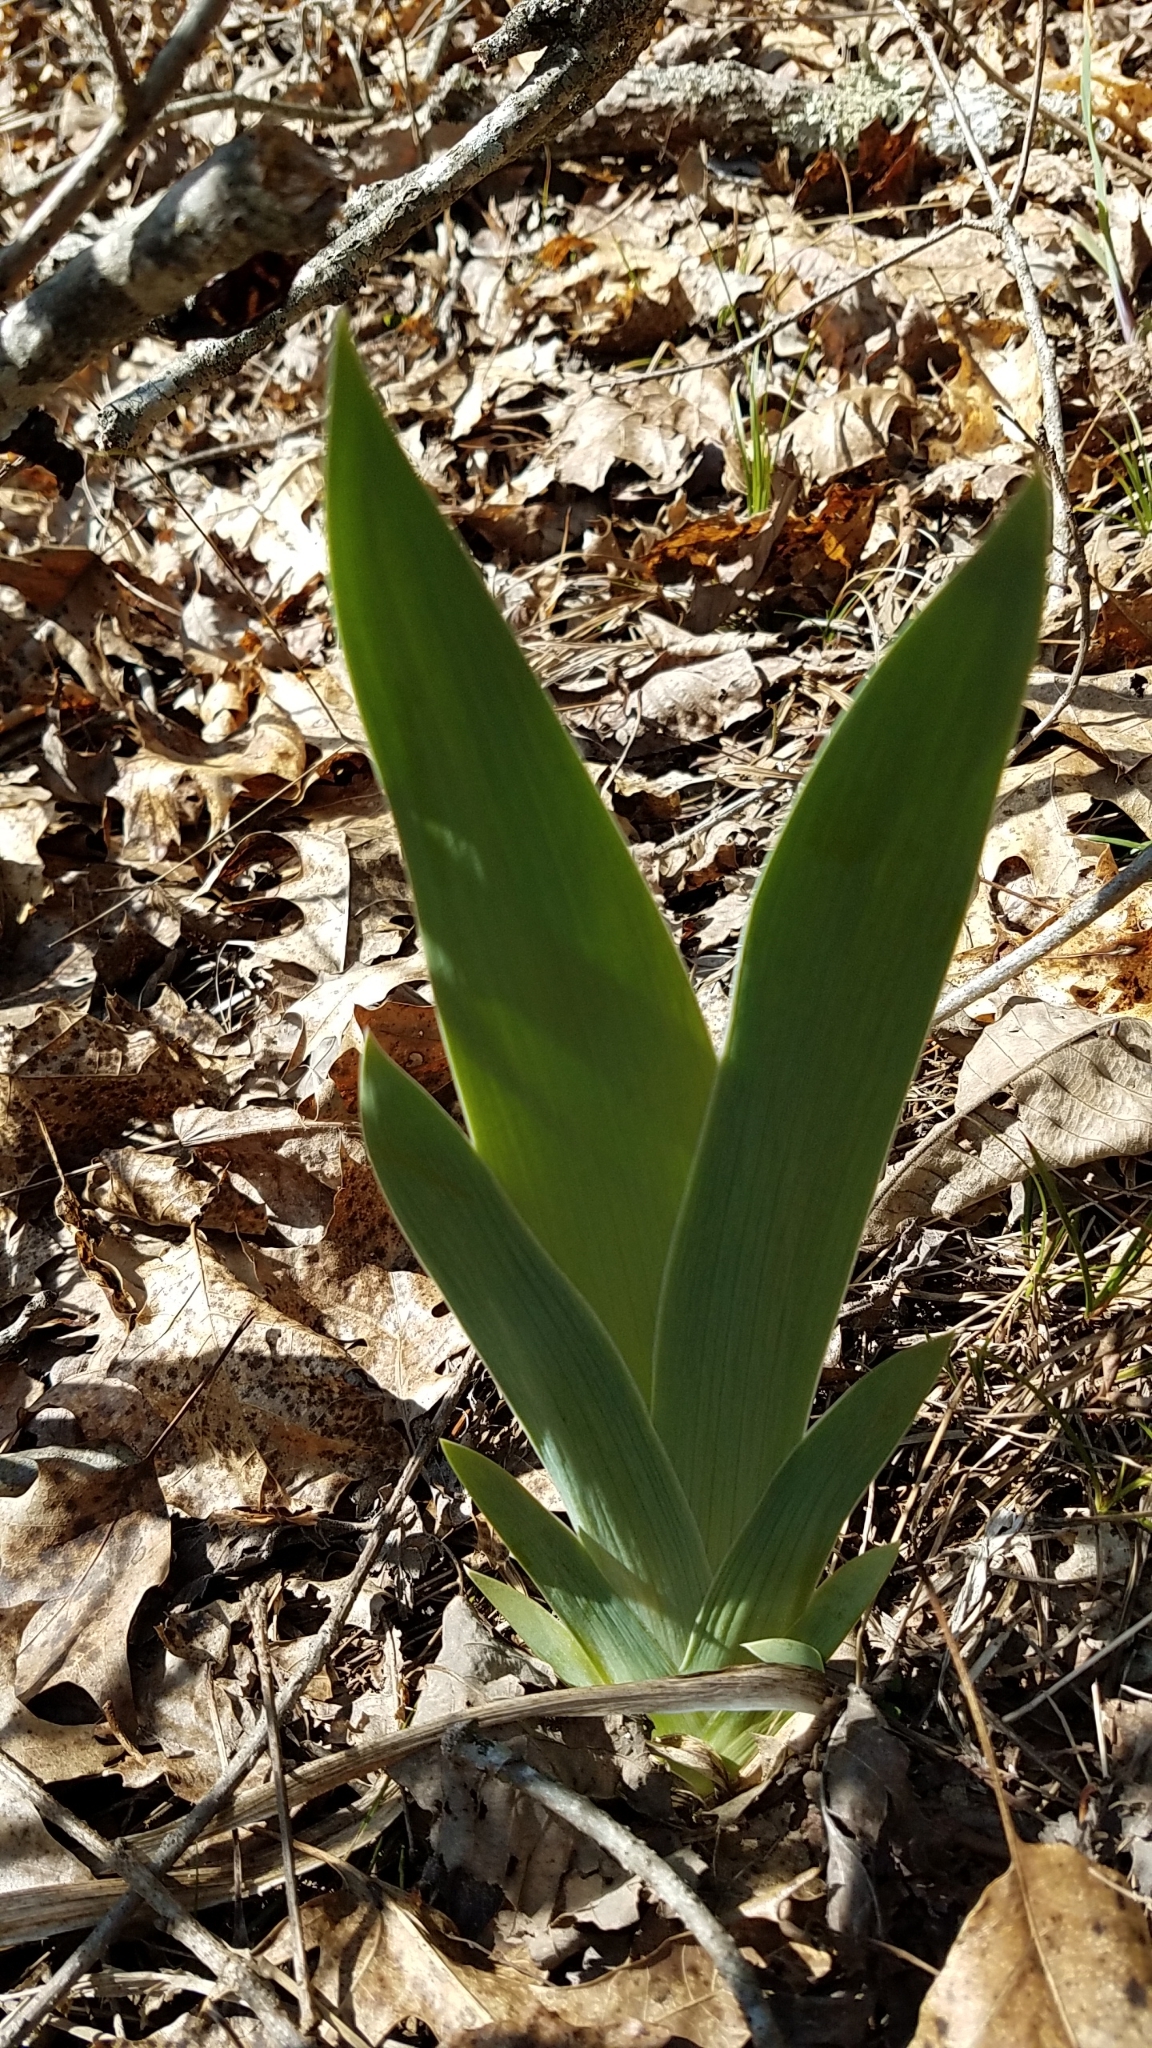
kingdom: Plantae
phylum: Tracheophyta
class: Liliopsida
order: Asparagales
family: Iridaceae
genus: Iris
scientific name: Iris cristata
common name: Crested iris
